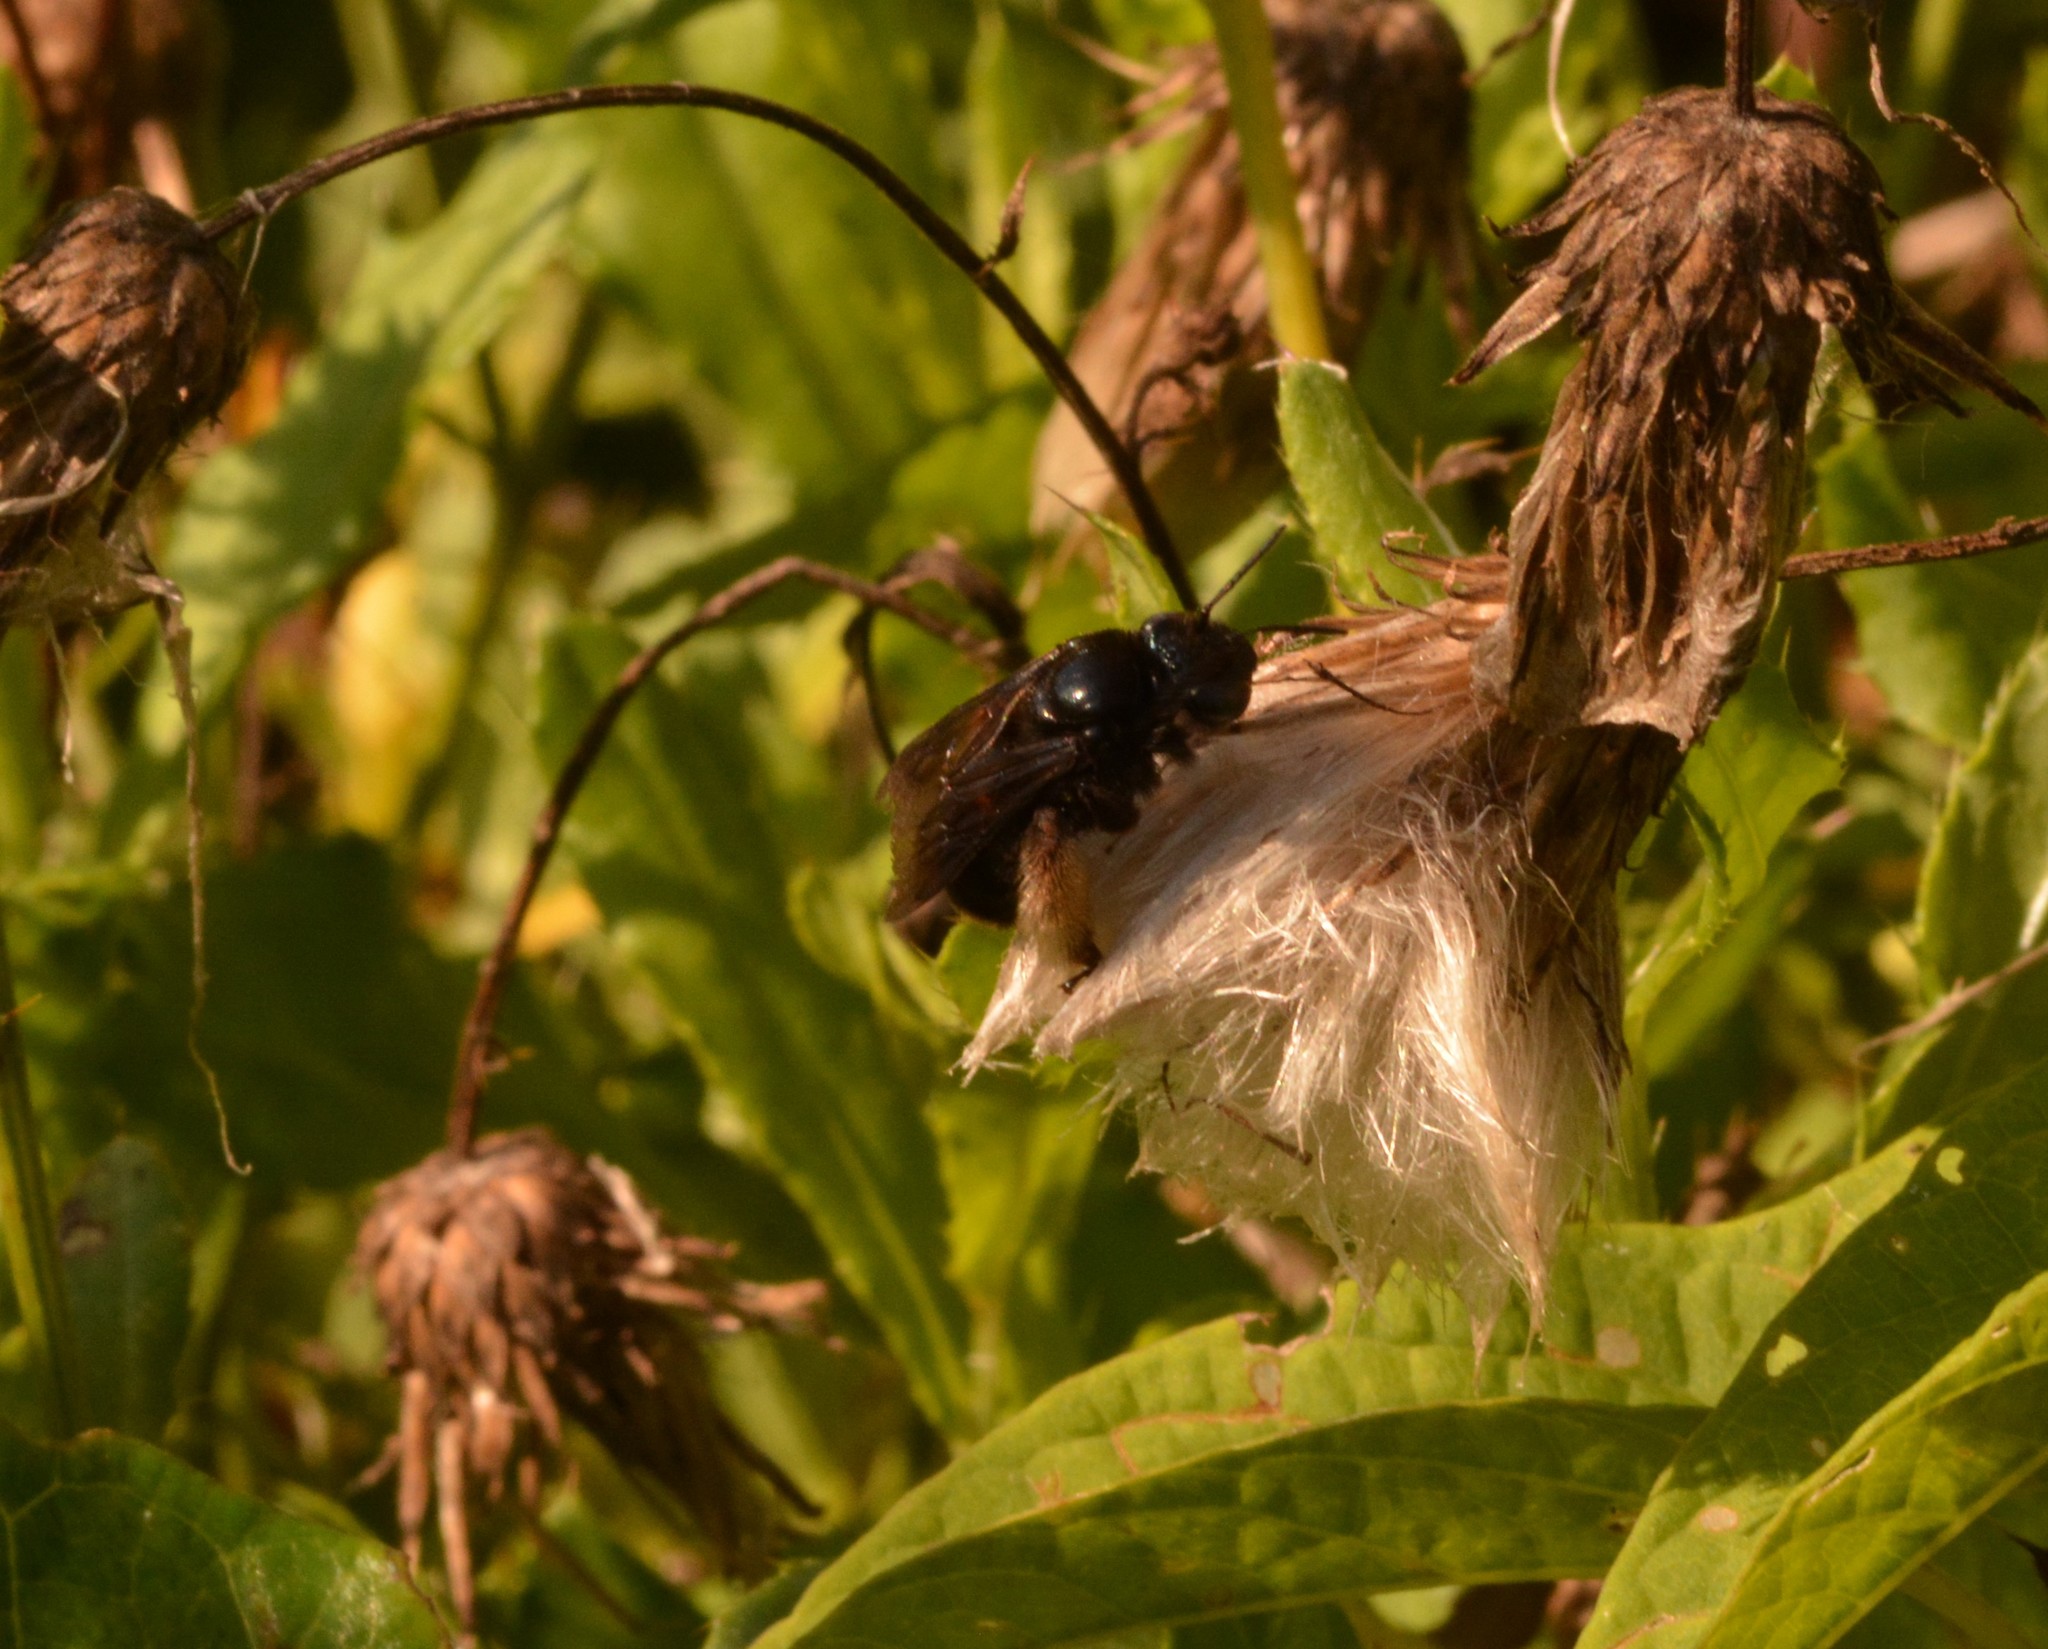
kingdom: Animalia
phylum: Arthropoda
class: Insecta
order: Hymenoptera
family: Apidae
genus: Melissodes
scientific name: Melissodes bimaculatus
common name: Two-spotted long-horned bee
